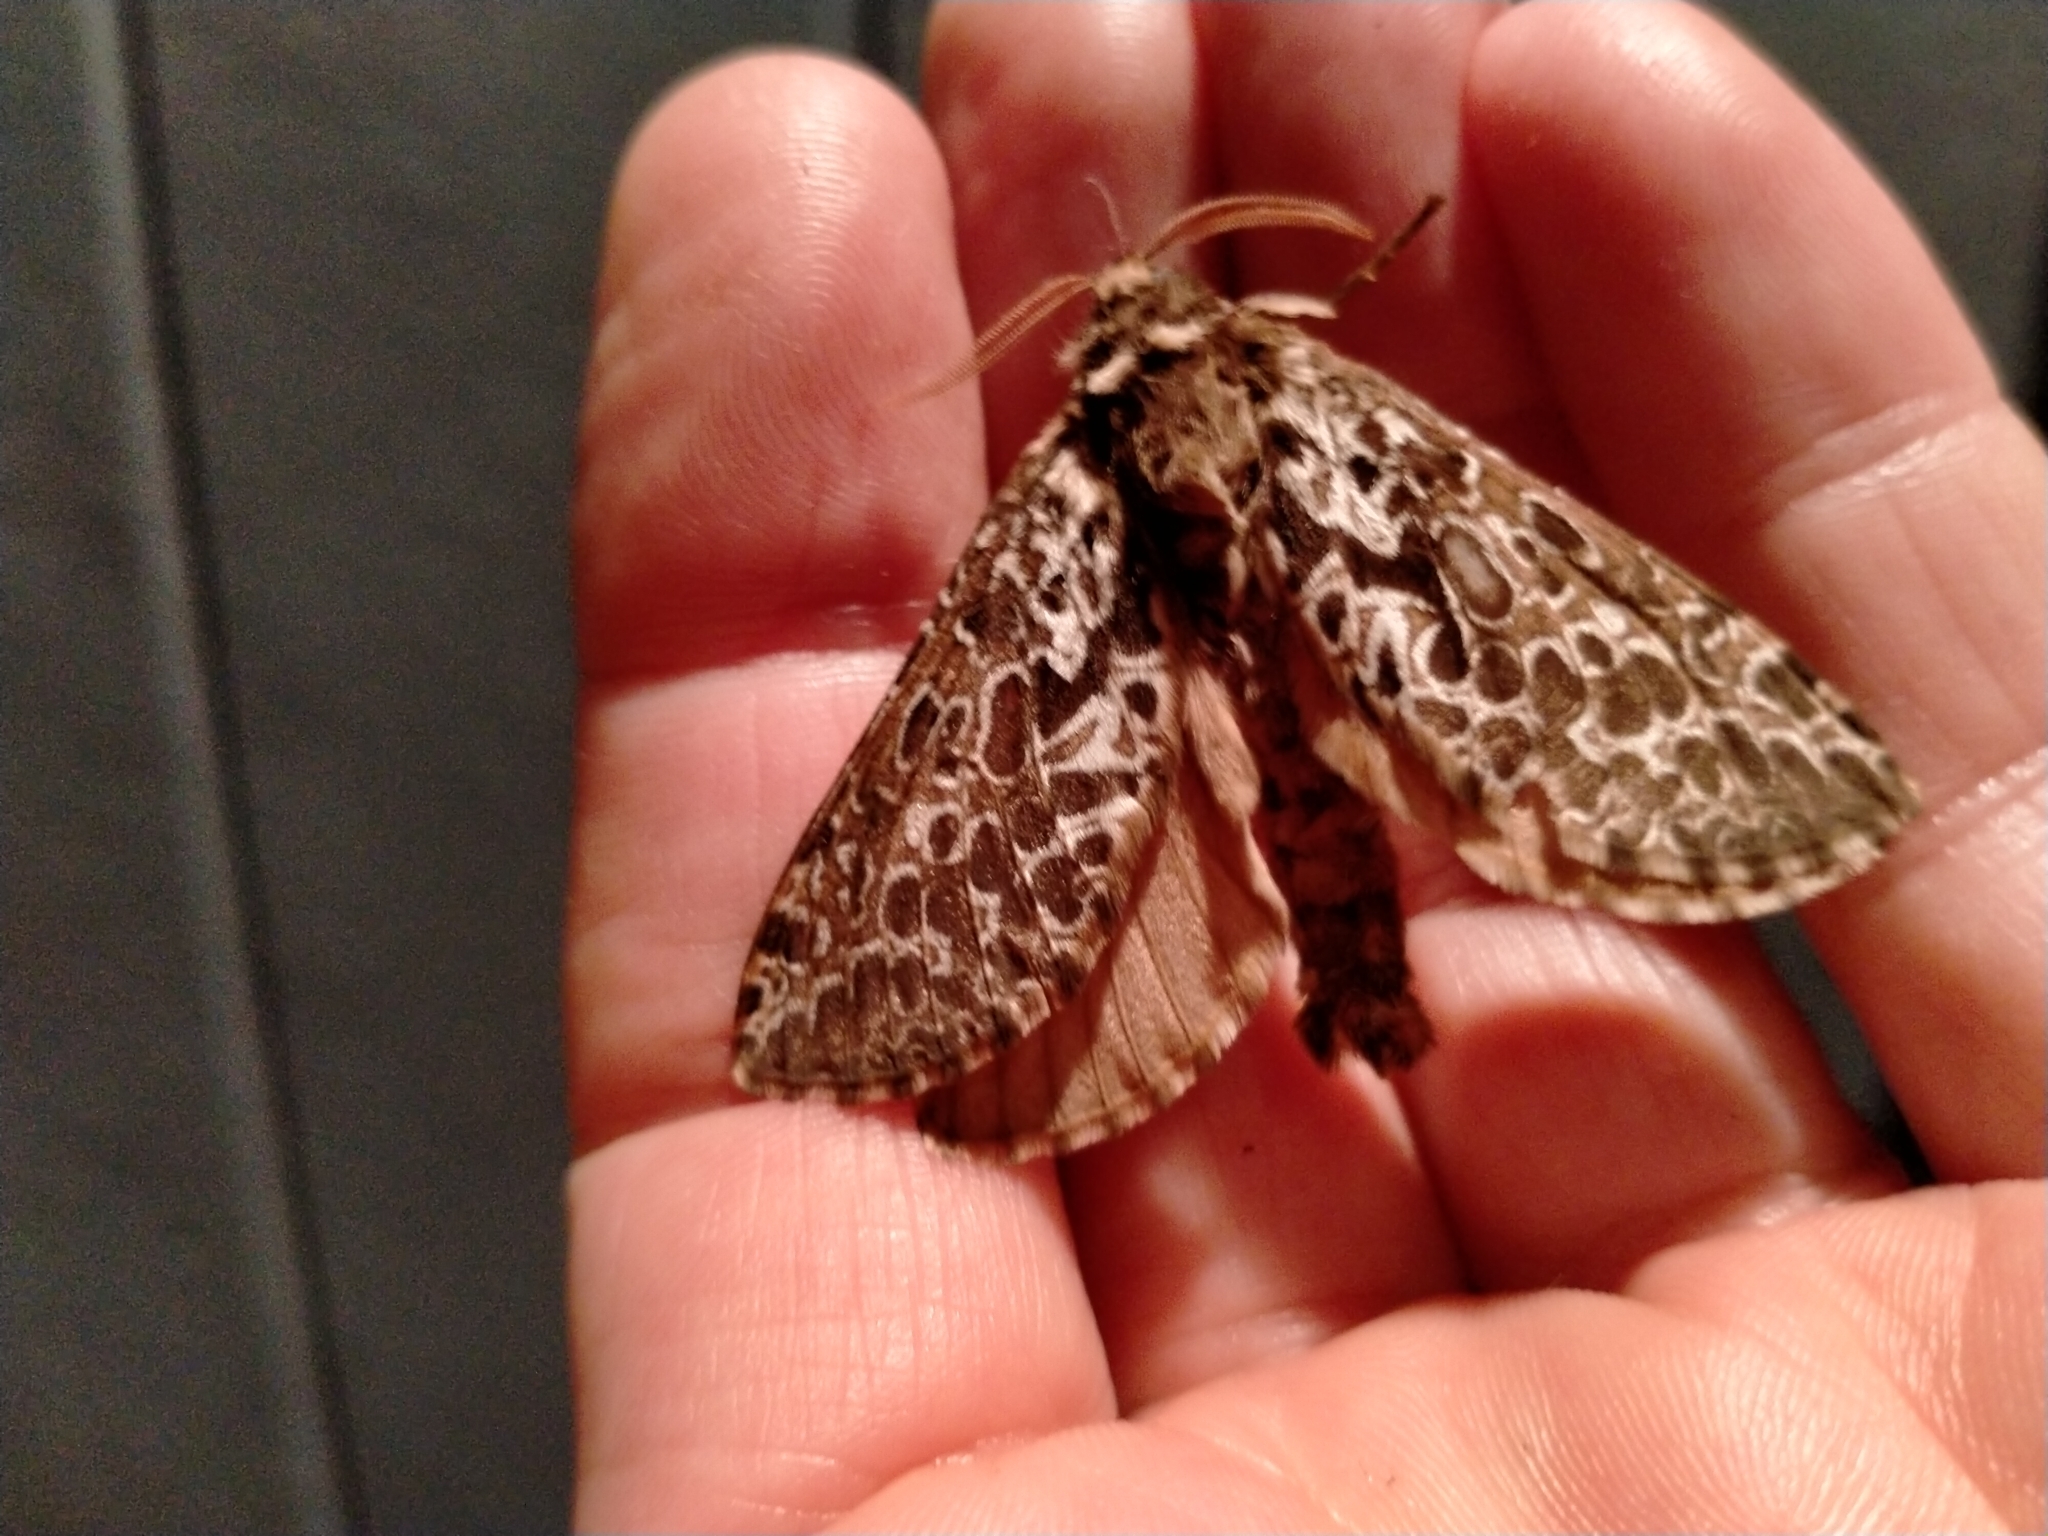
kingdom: Animalia
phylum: Arthropoda
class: Insecta
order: Lepidoptera
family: Hepialidae
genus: Aoraia
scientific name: Aoraia rufivena
